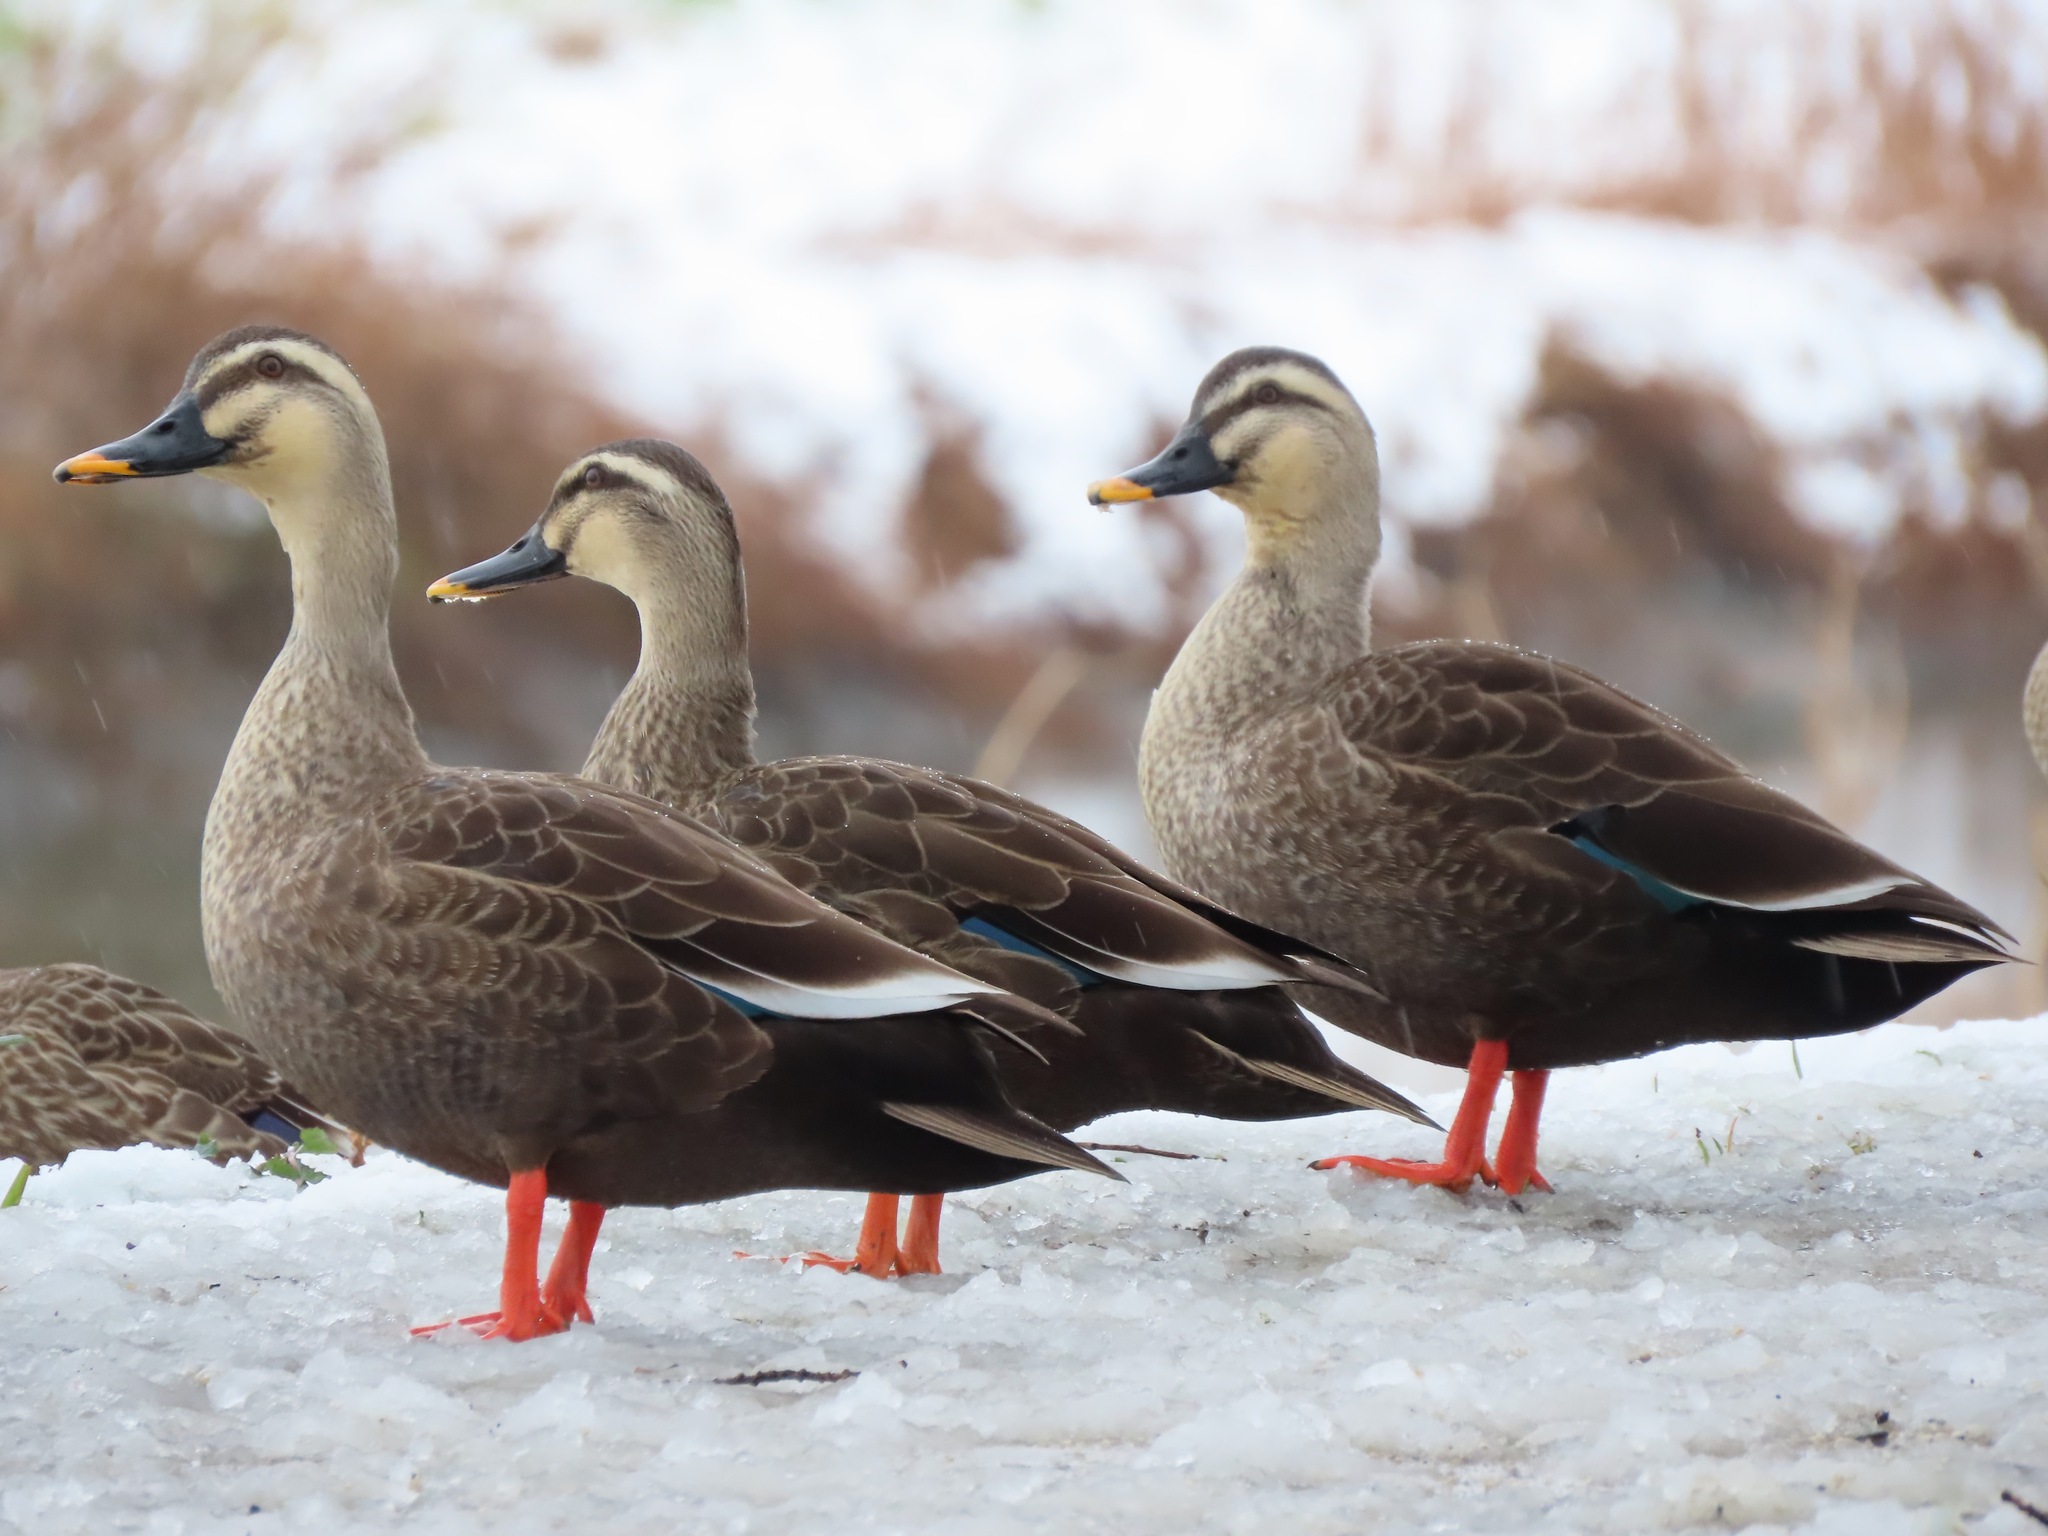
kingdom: Animalia
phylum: Chordata
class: Aves
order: Anseriformes
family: Anatidae
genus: Anas
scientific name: Anas zonorhyncha
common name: Eastern spot-billed duck
